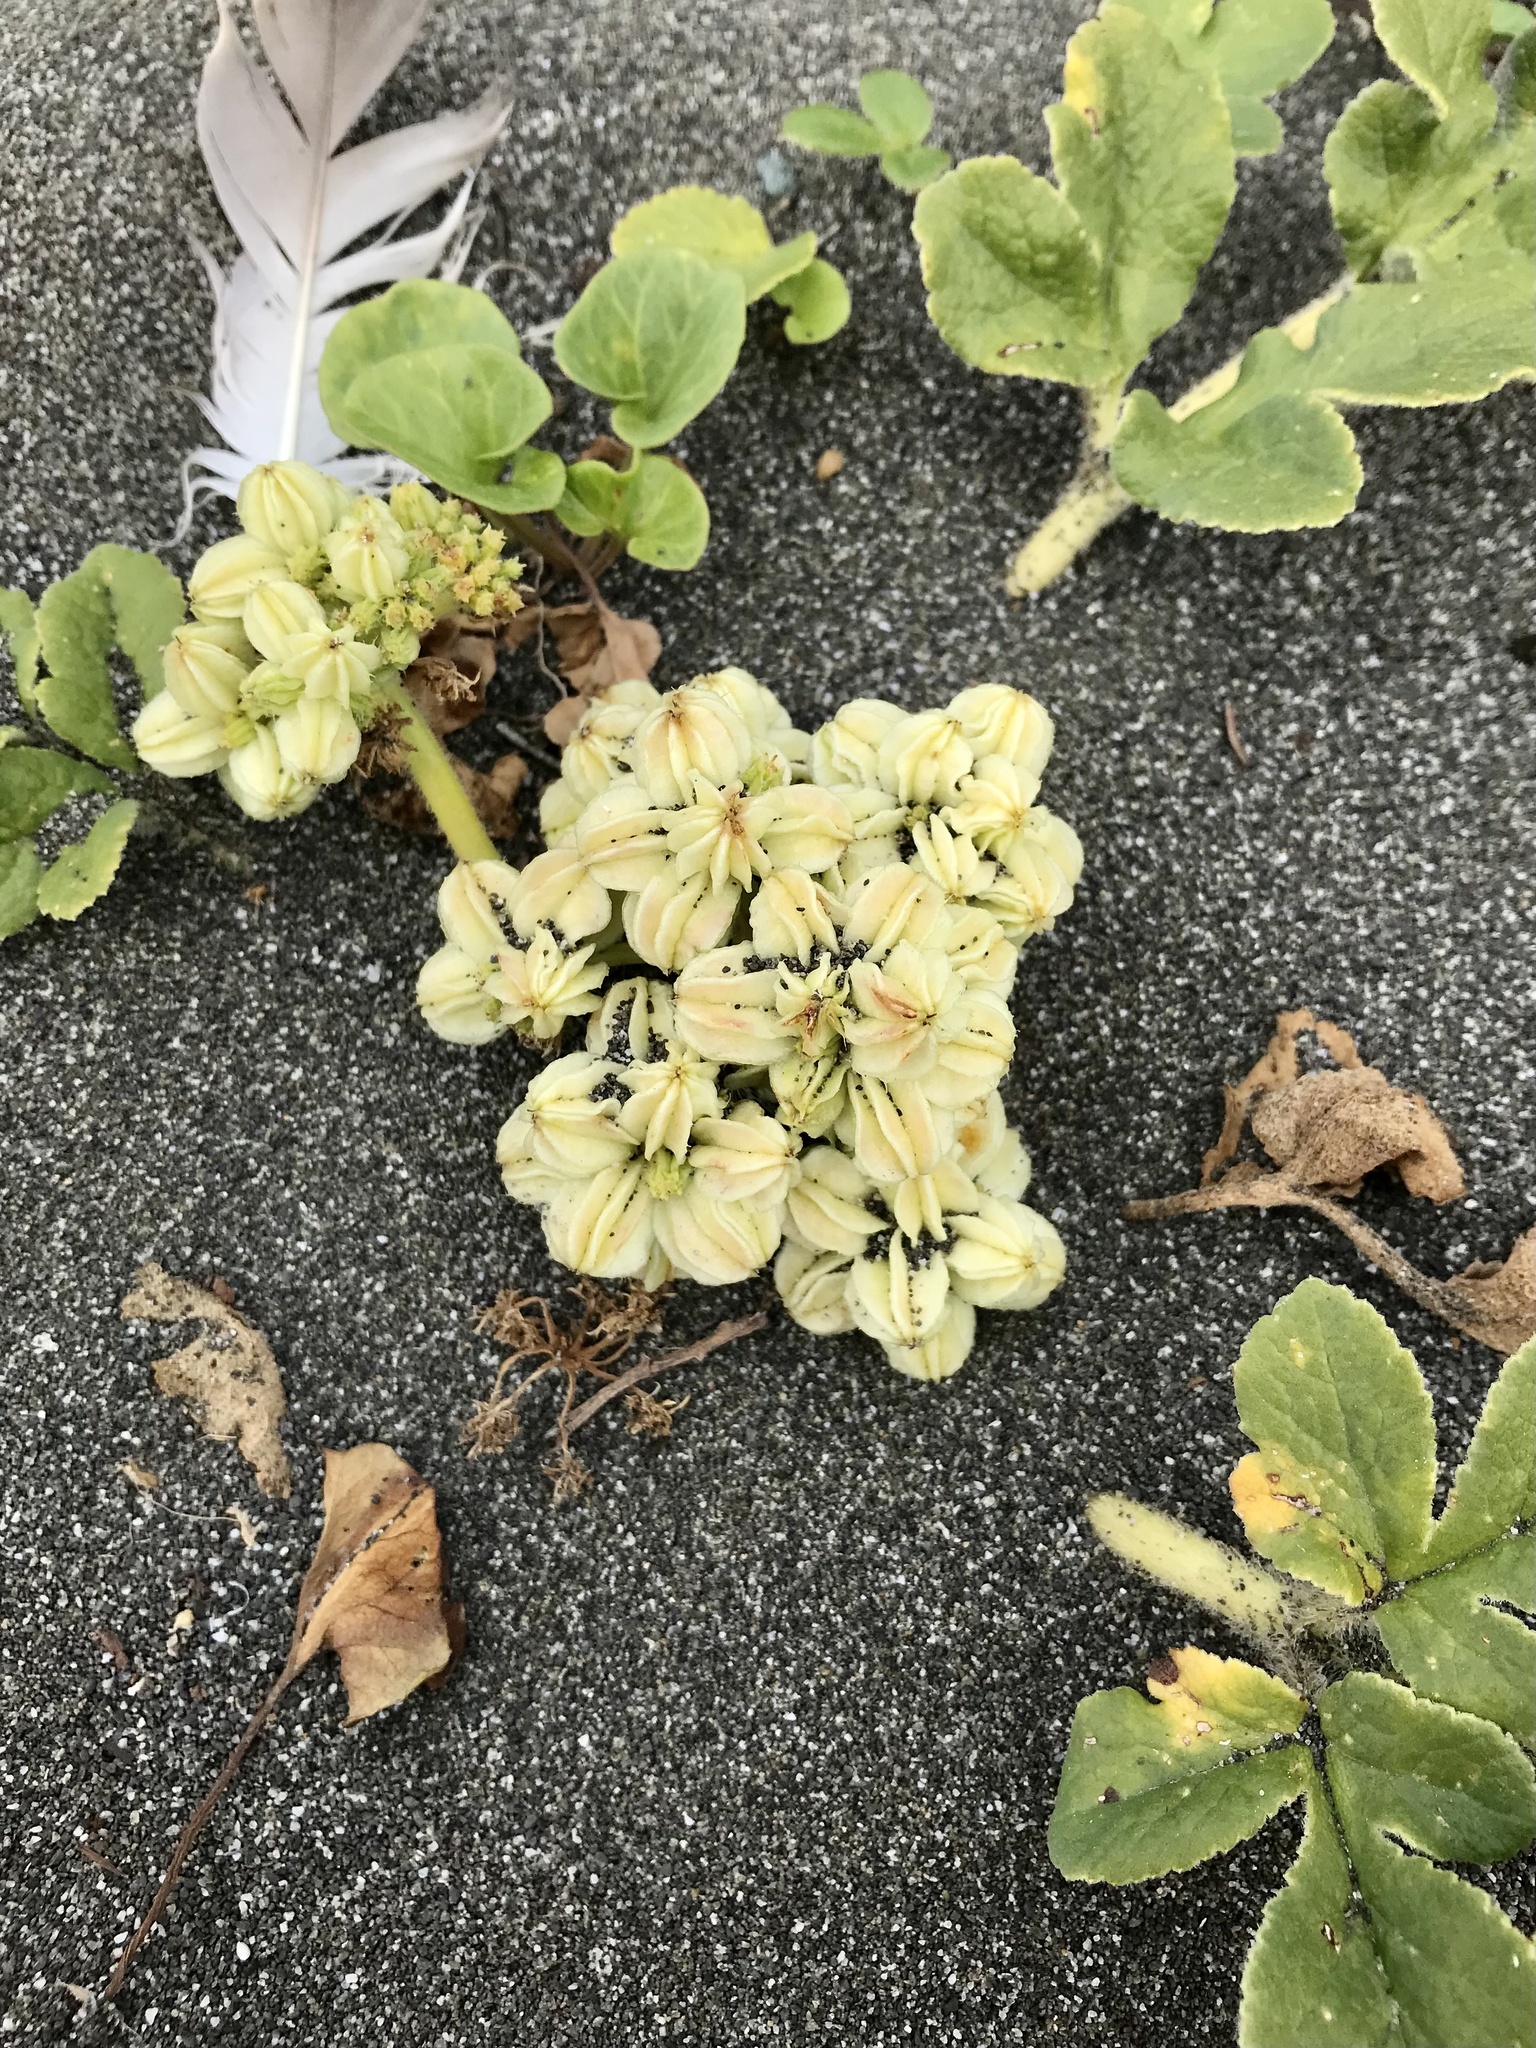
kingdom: Plantae
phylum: Tracheophyta
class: Magnoliopsida
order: Apiales
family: Apiaceae
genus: Glehnia
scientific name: Glehnia littoralis
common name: Beach silvertop
